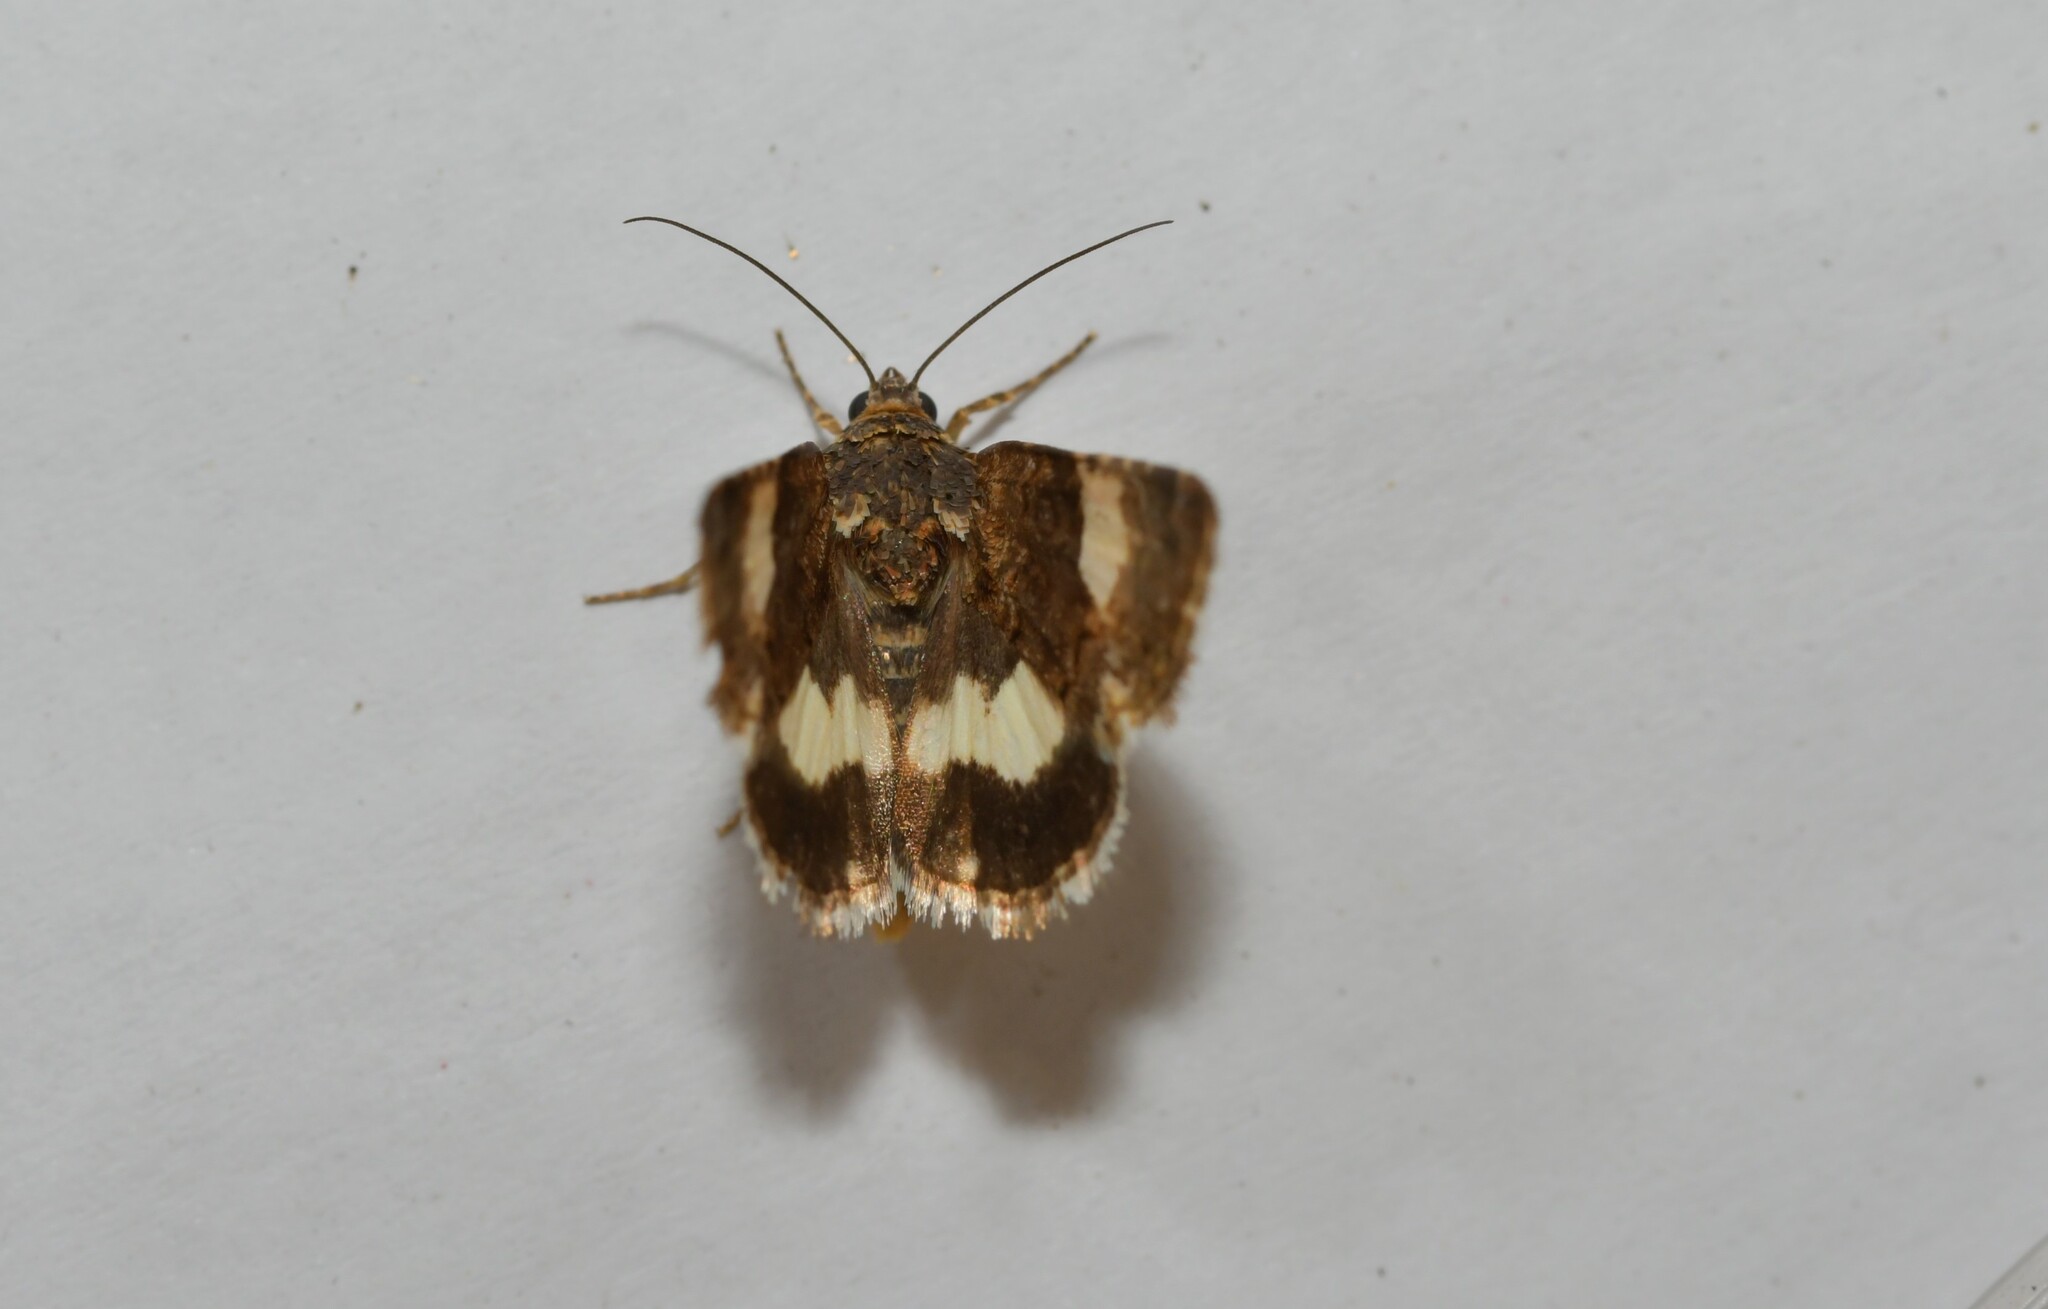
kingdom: Animalia
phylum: Arthropoda
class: Insecta
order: Lepidoptera
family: Erebidae
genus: Tyta
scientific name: Tyta luctuosa
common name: Four-spotted
